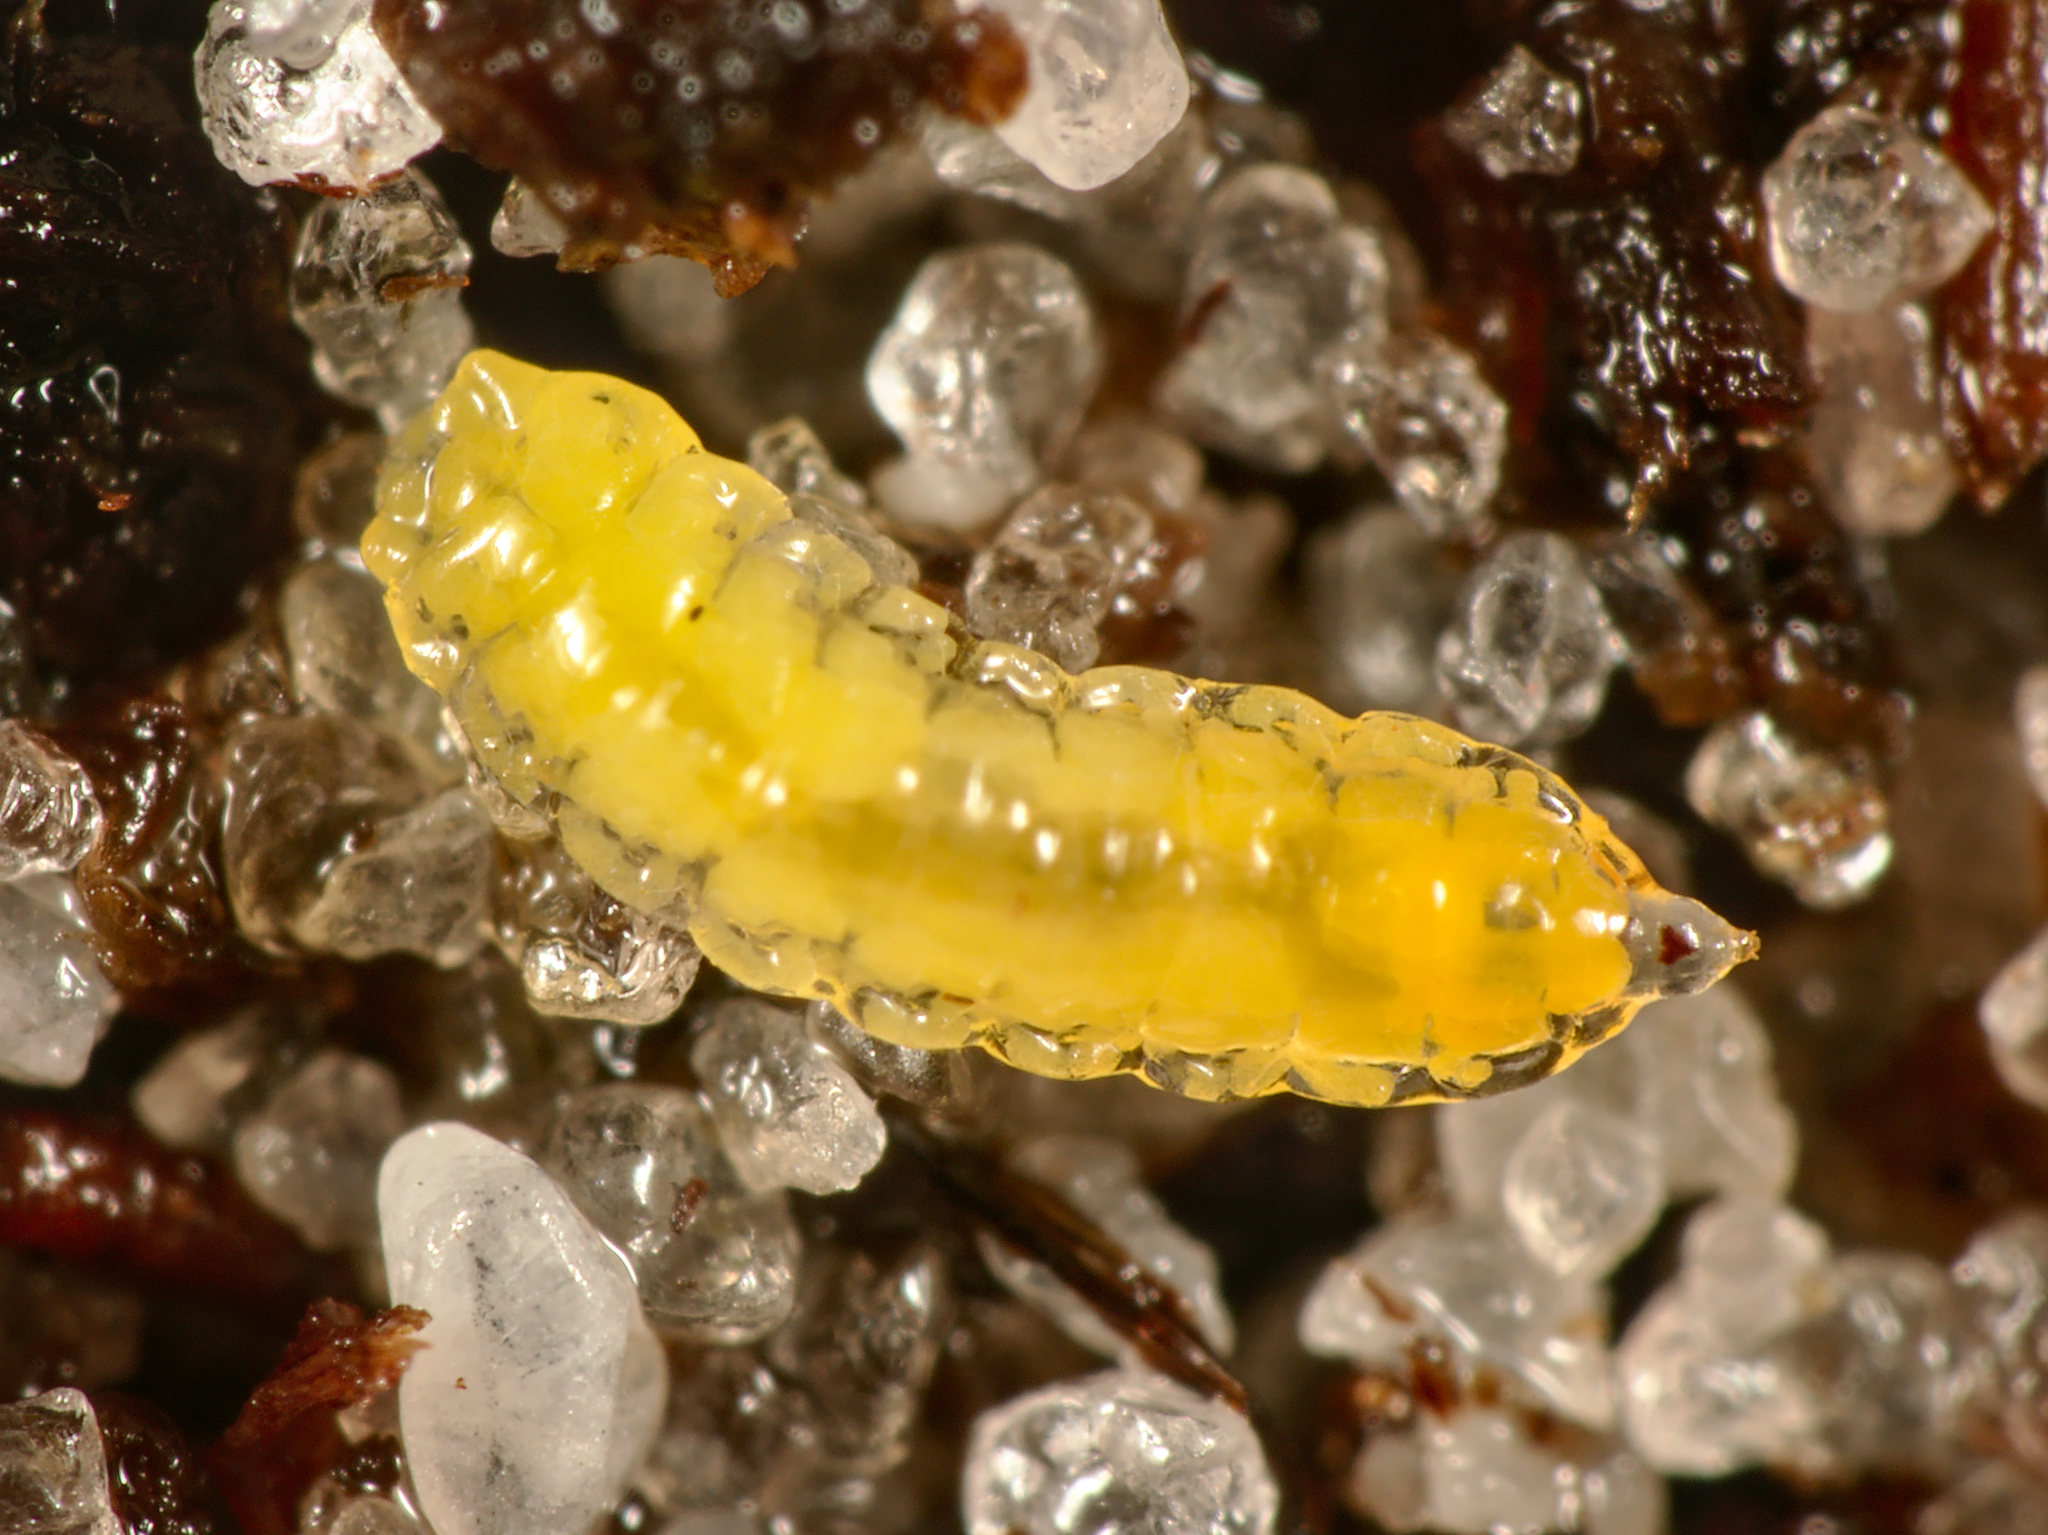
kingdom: Animalia
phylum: Arthropoda
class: Insecta
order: Diptera
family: Cecidomyiidae
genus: Contarinia
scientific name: Contarinia pseudotsugae
